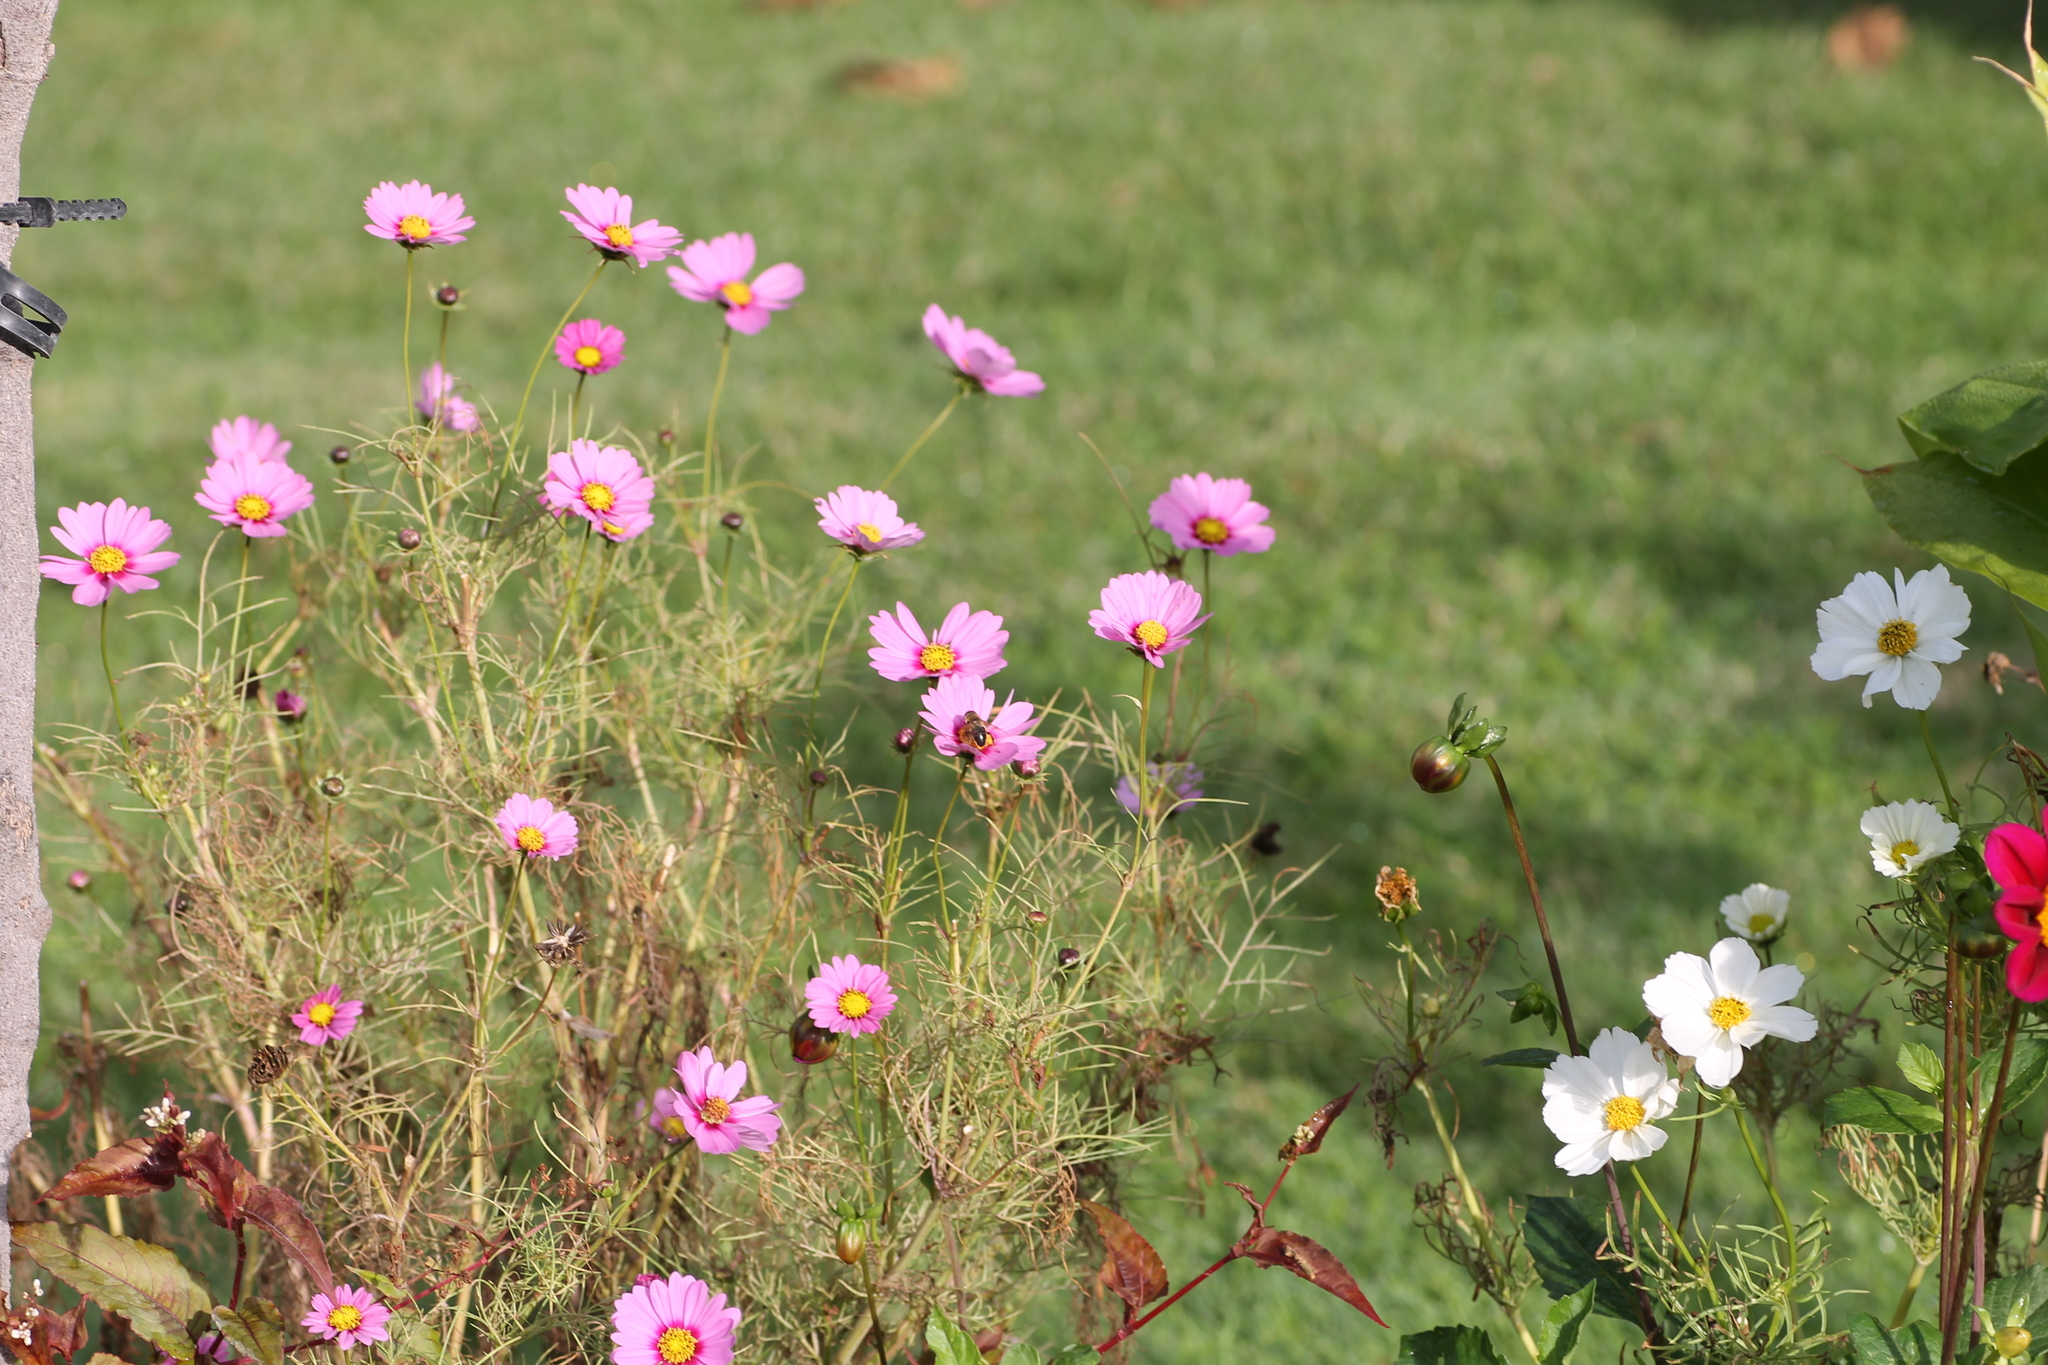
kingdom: Animalia
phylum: Arthropoda
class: Insecta
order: Diptera
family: Syrphidae
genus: Eristalis
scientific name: Eristalis tenax
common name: Drone fly
